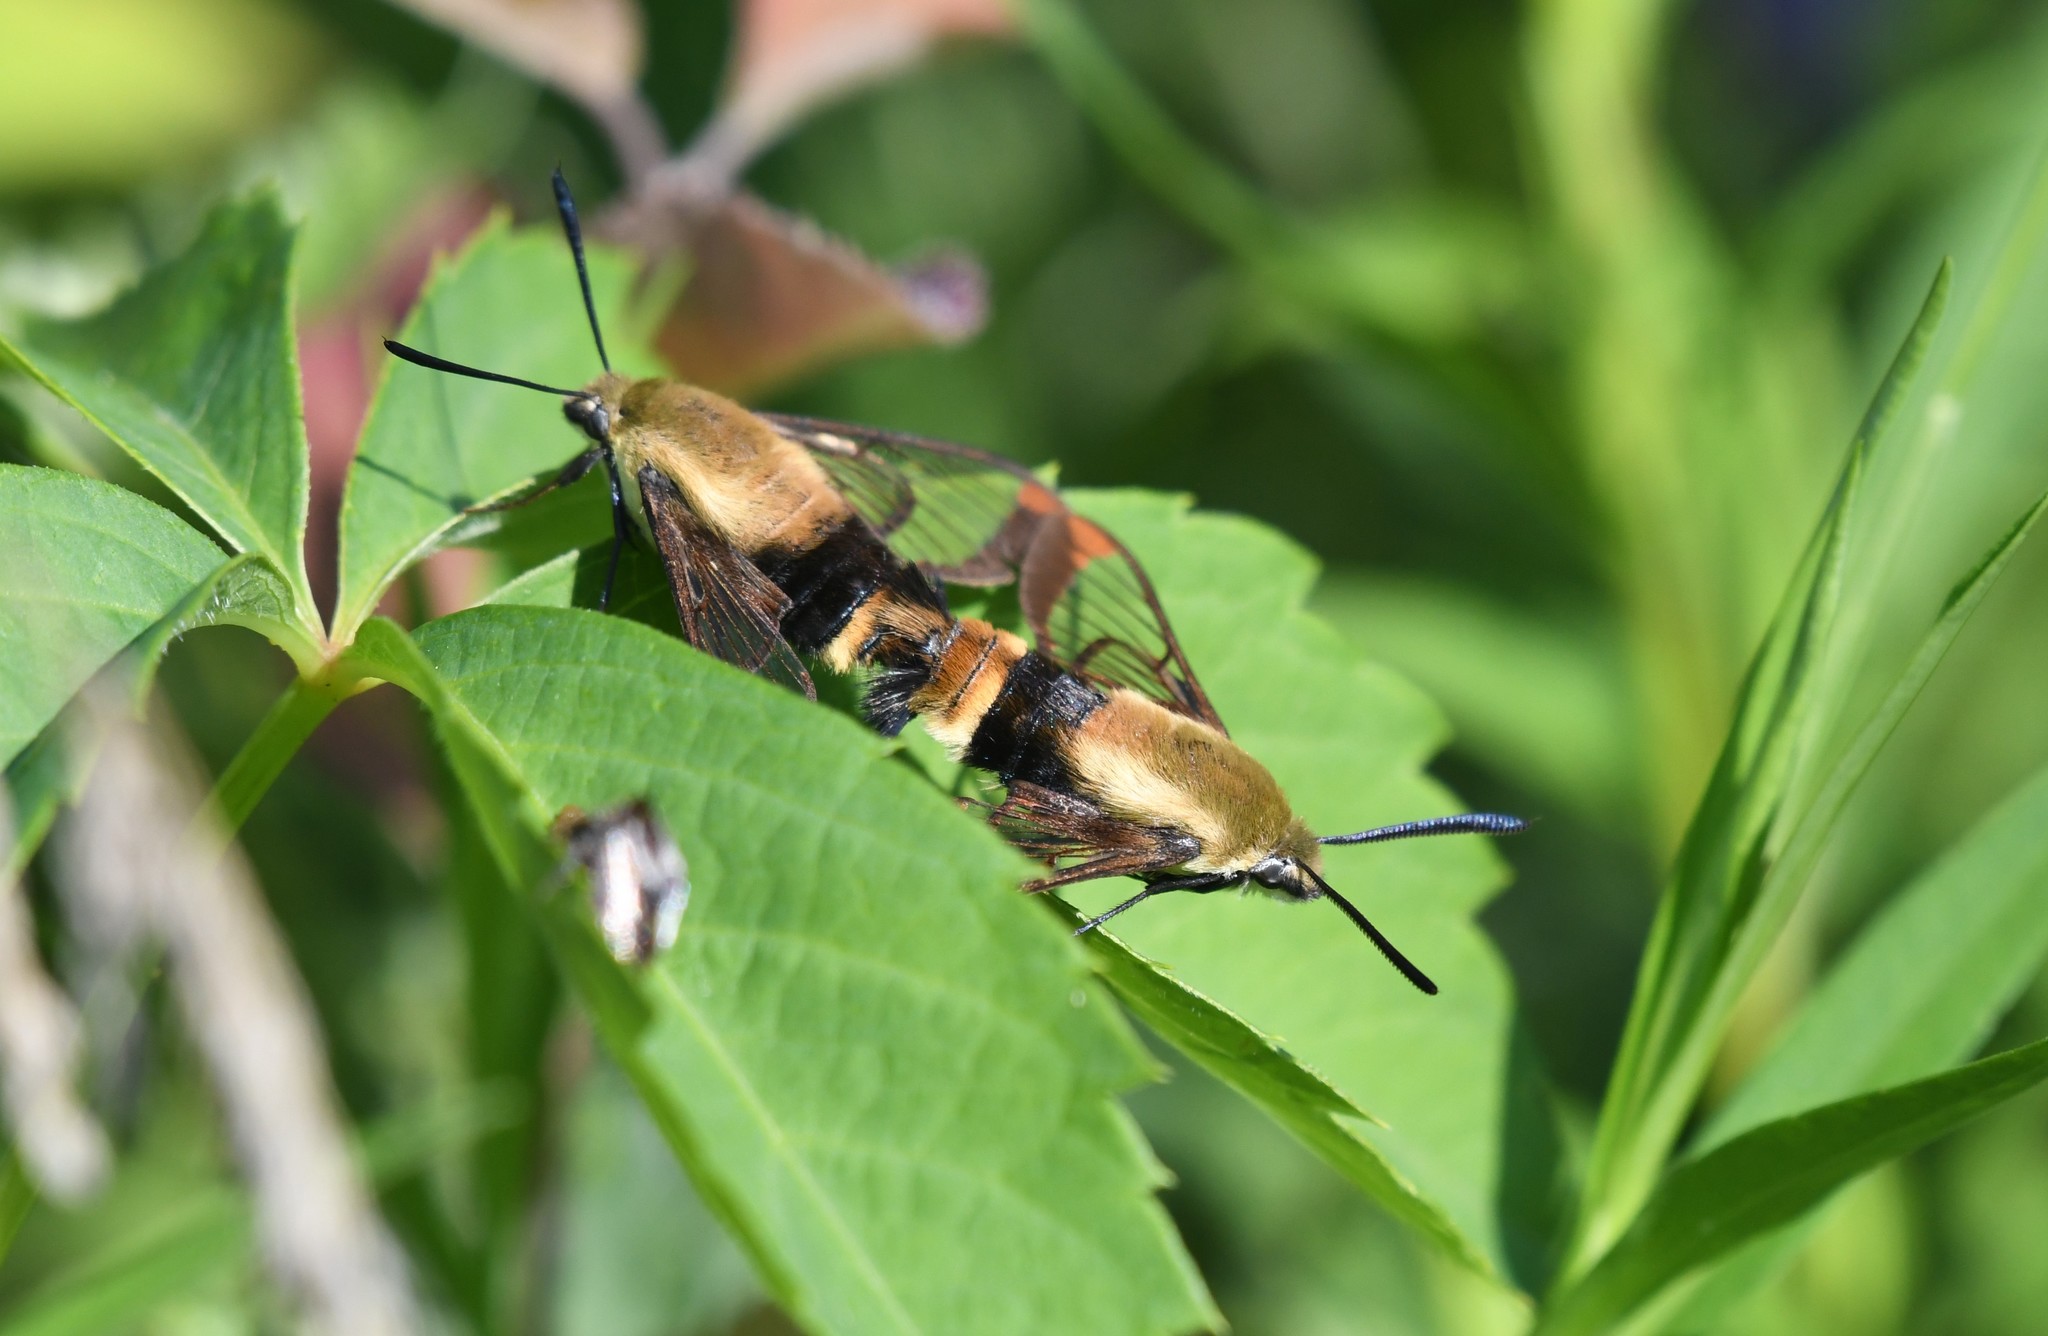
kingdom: Animalia
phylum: Arthropoda
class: Insecta
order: Lepidoptera
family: Sphingidae
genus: Hemaris
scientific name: Hemaris diffinis
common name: Bumblebee moth
